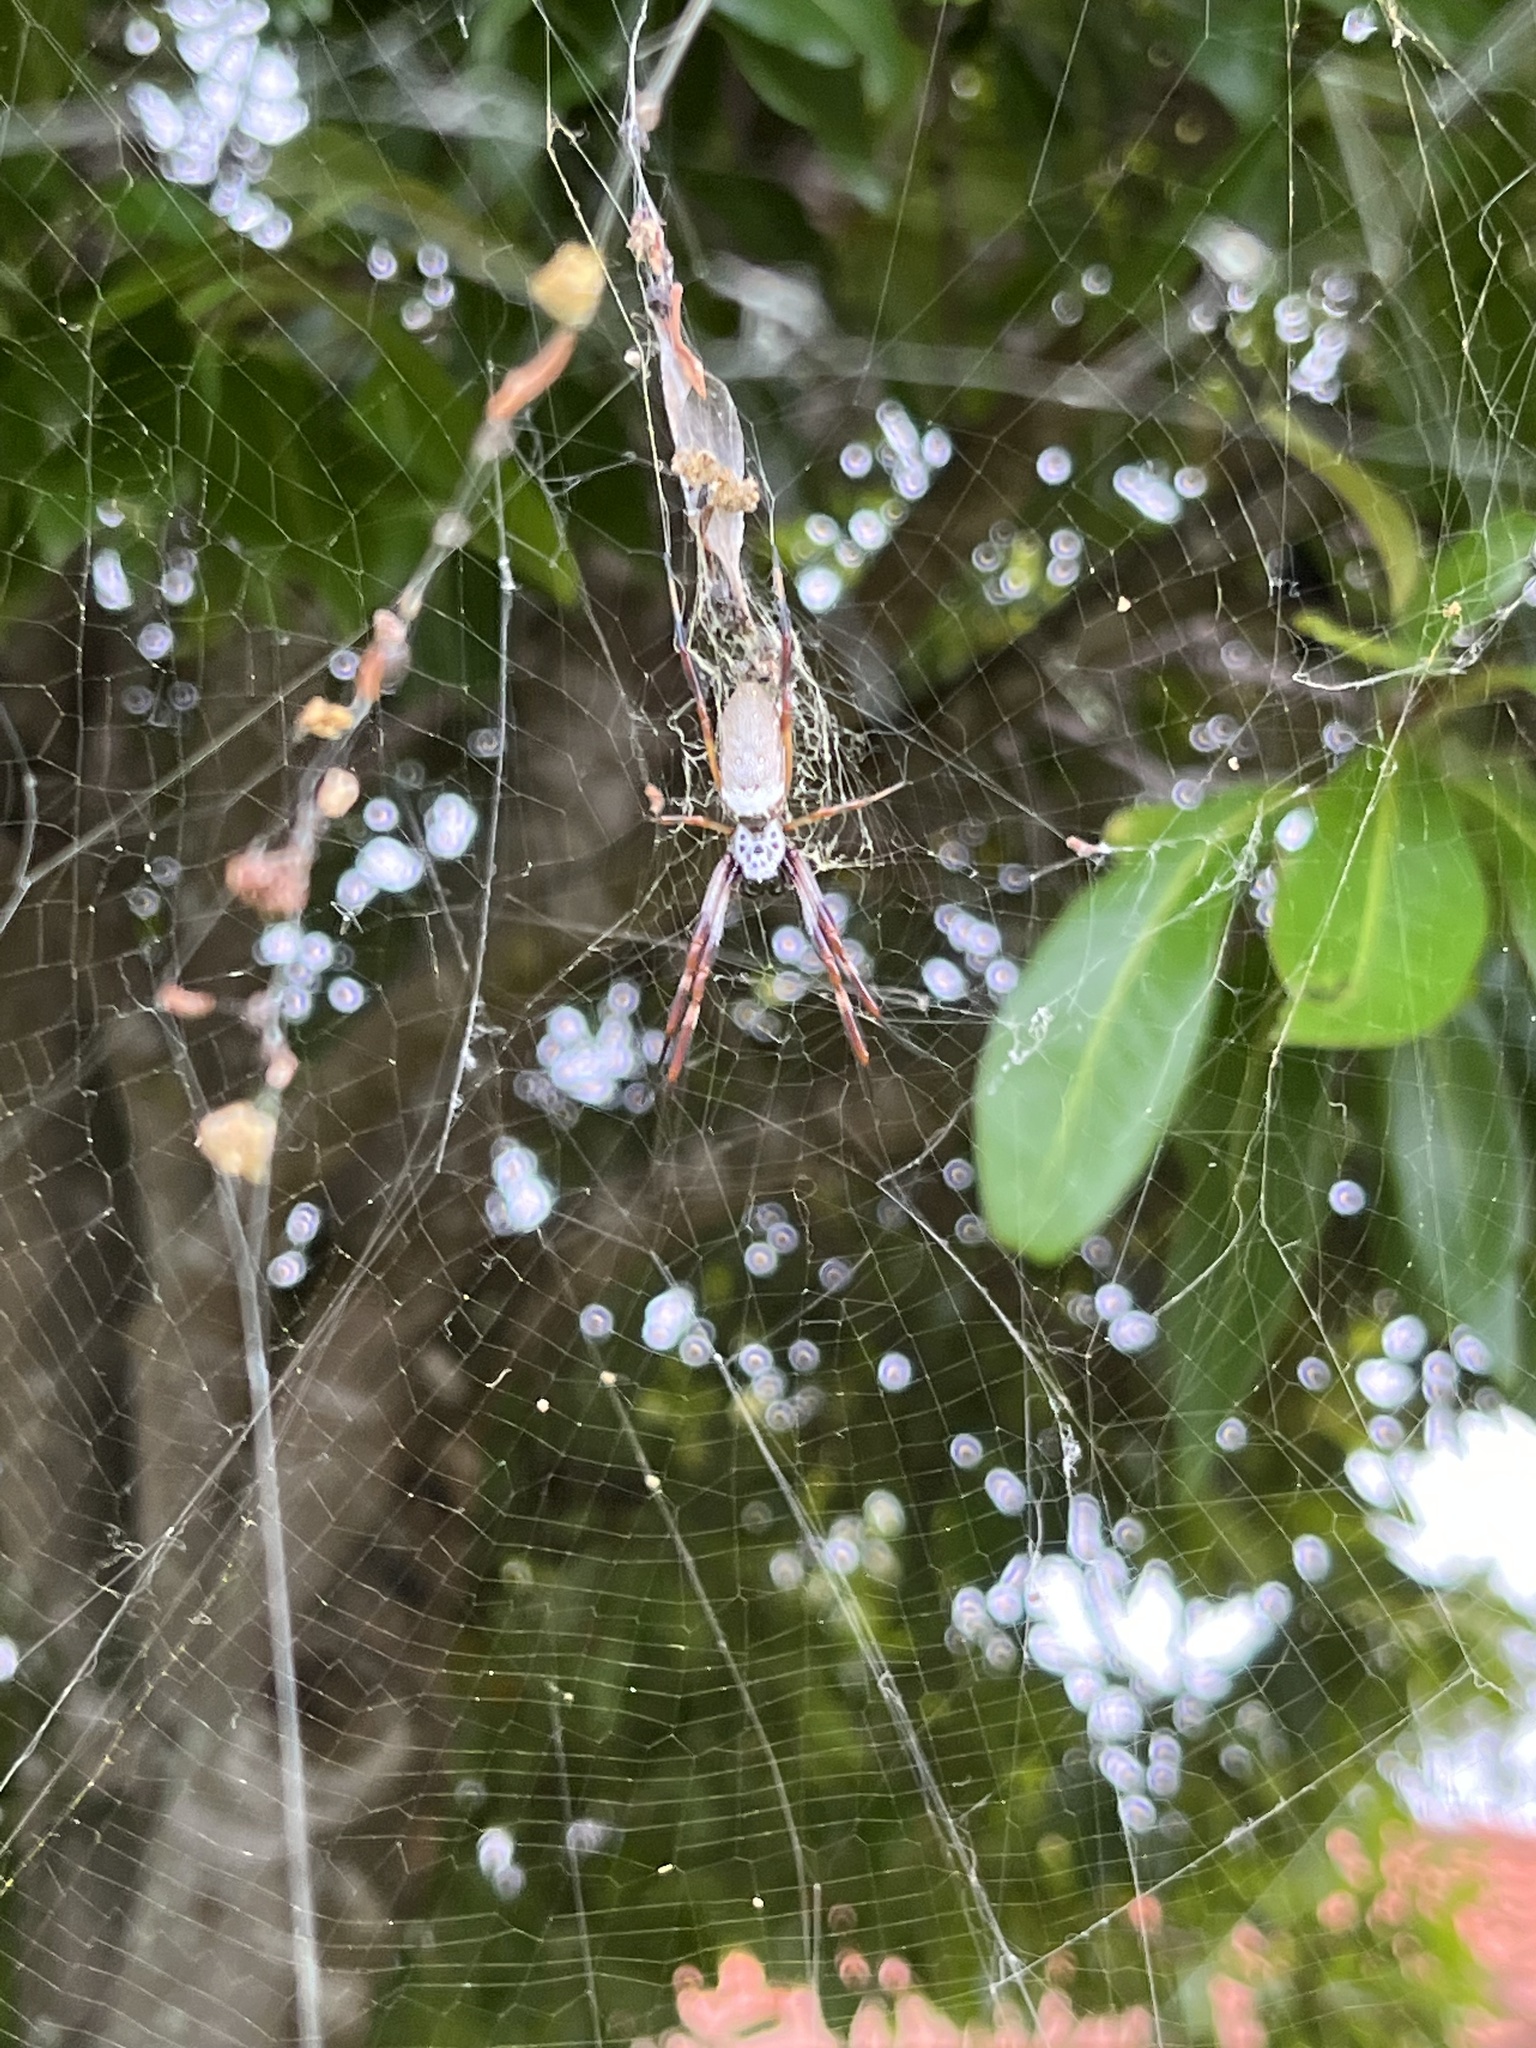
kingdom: Animalia
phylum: Arthropoda
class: Arachnida
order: Araneae
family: Araneidae
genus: Trichonephila
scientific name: Trichonephila edulis
